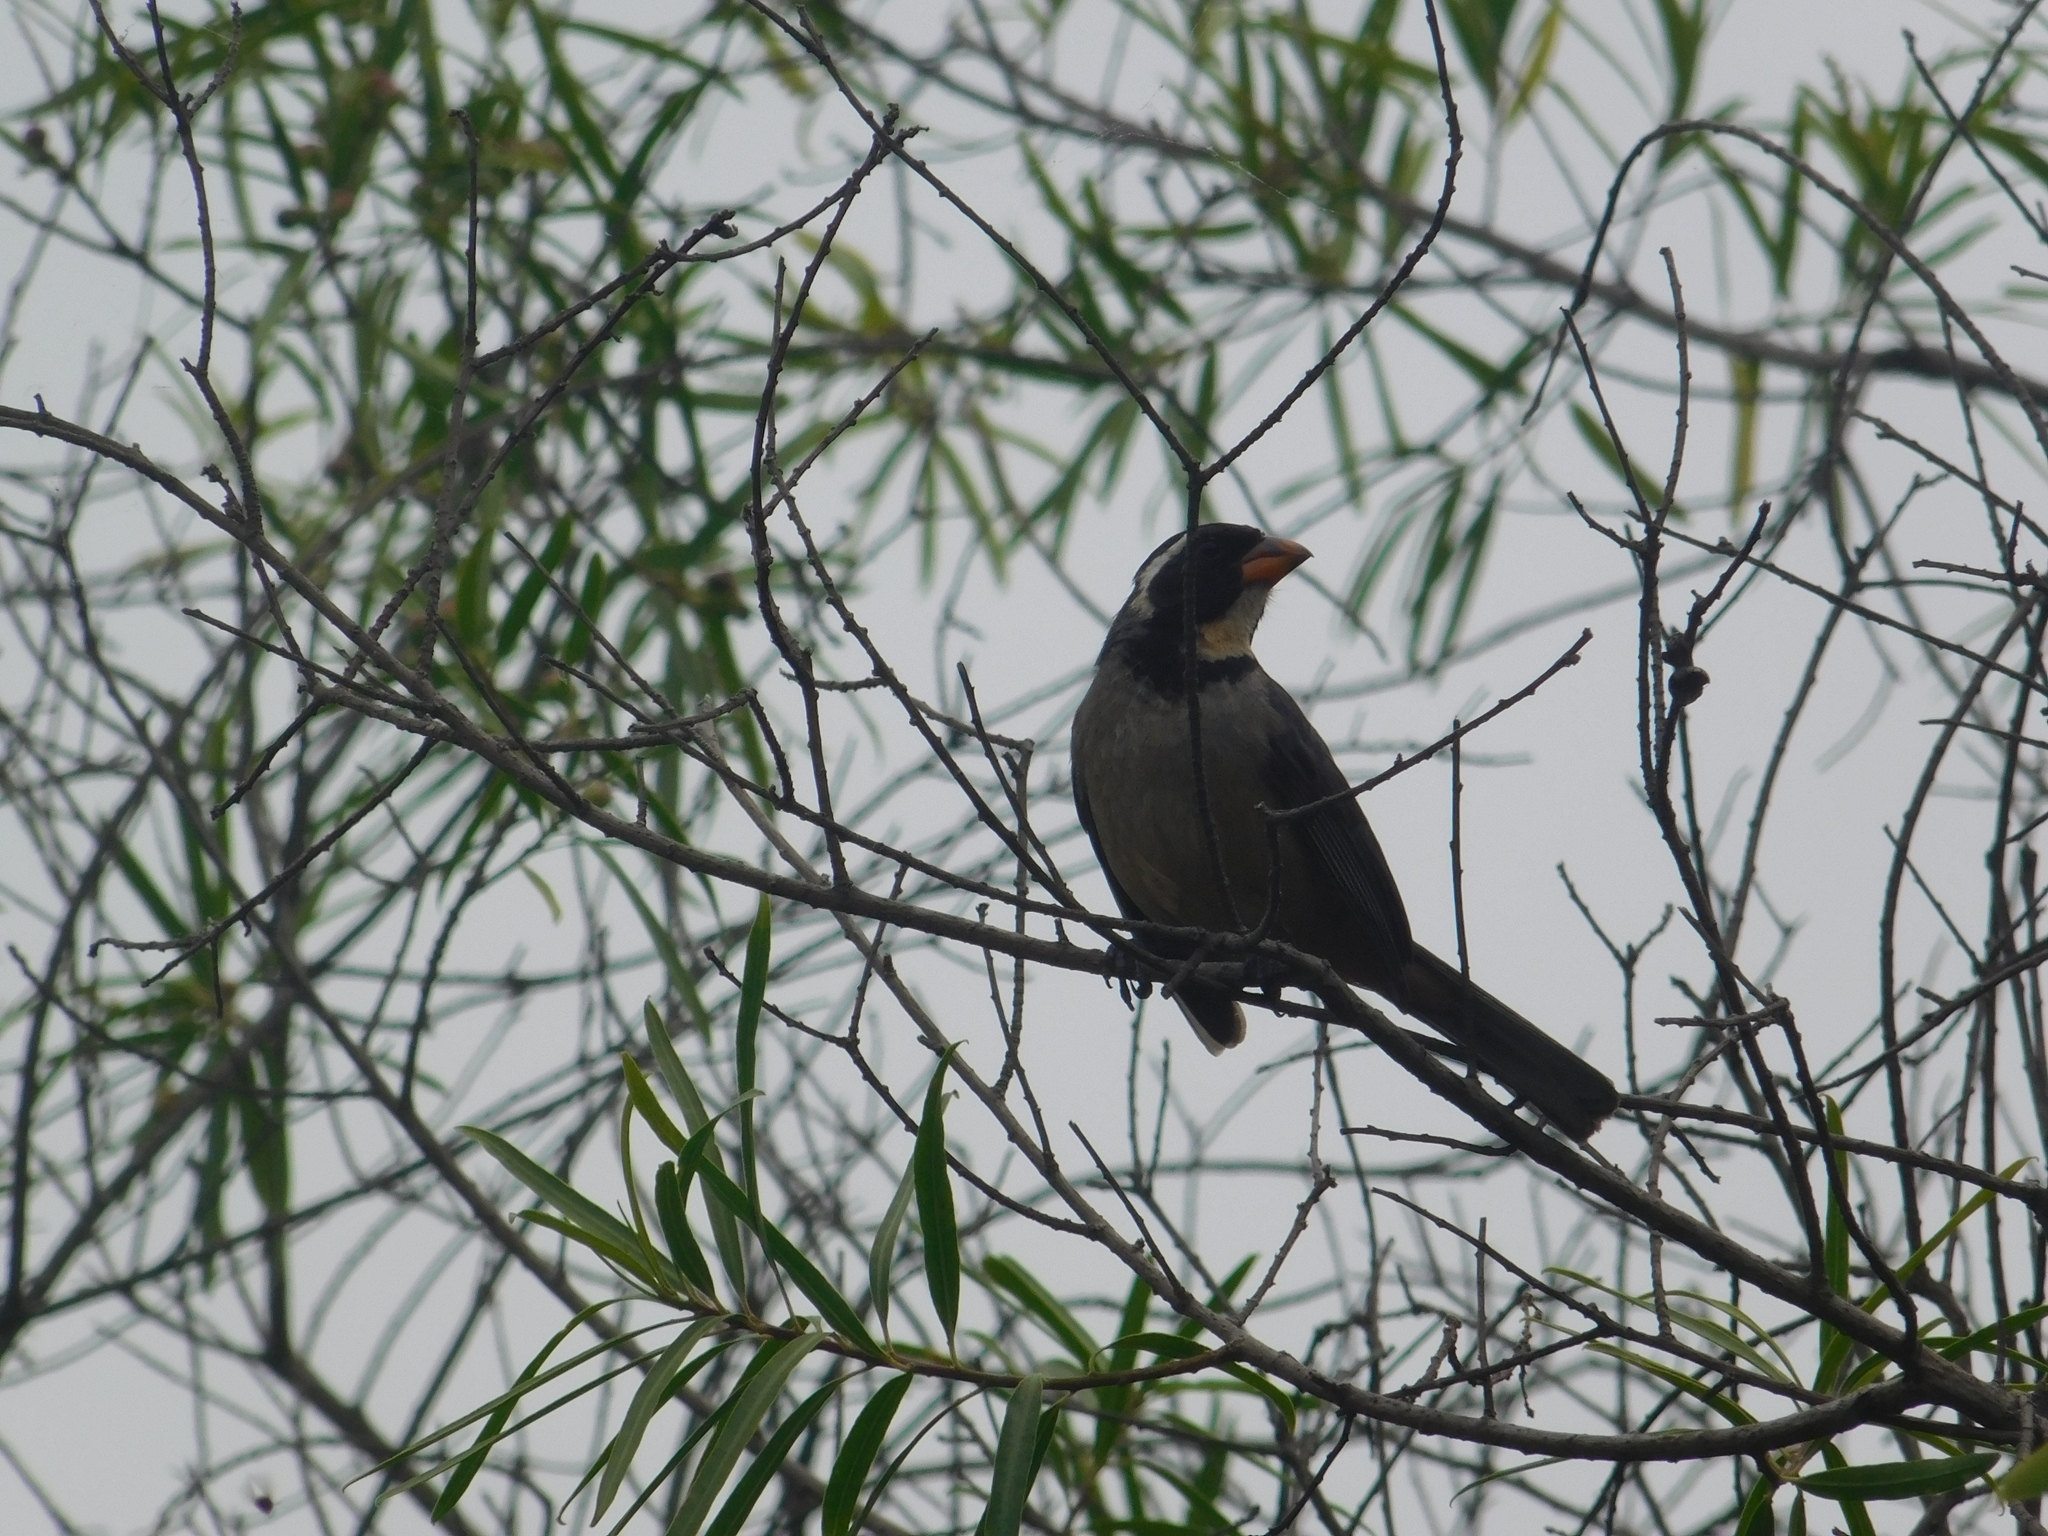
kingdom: Animalia
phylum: Chordata
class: Aves
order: Passeriformes
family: Thraupidae
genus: Saltator
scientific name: Saltator aurantiirostris
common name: Golden-billed saltator
